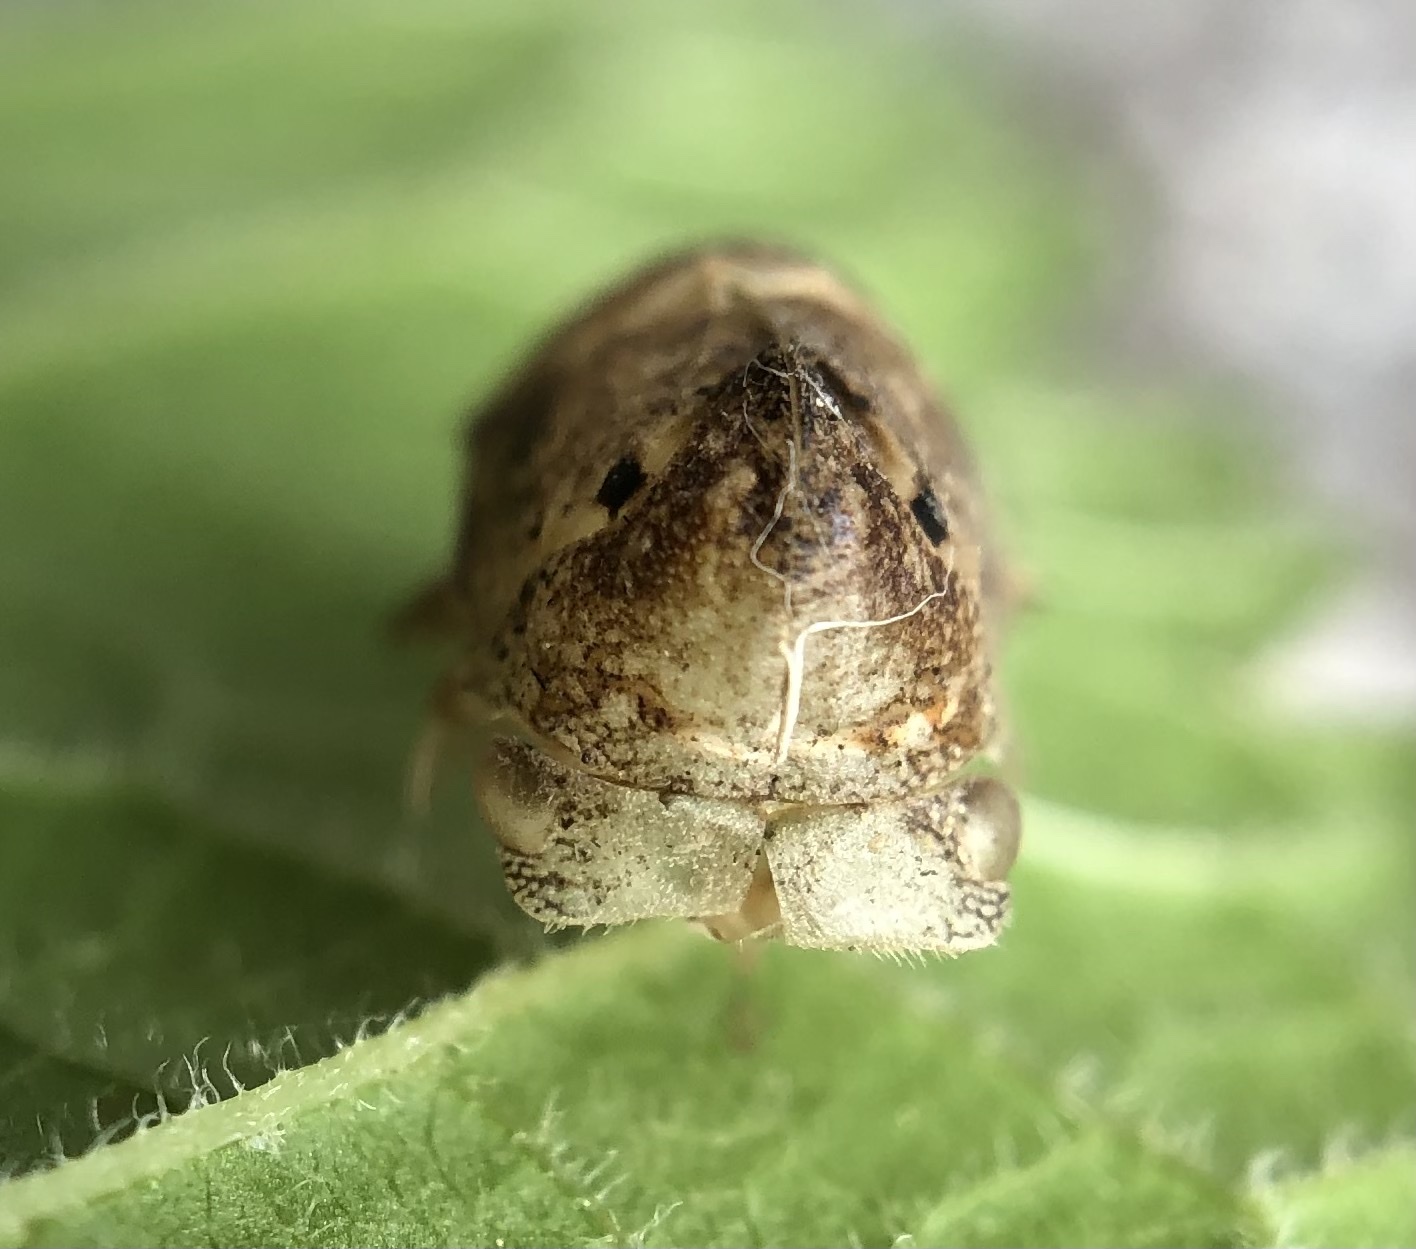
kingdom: Animalia
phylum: Arthropoda
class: Insecta
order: Hemiptera
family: Membracidae
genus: Hebetica
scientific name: Hebetica
